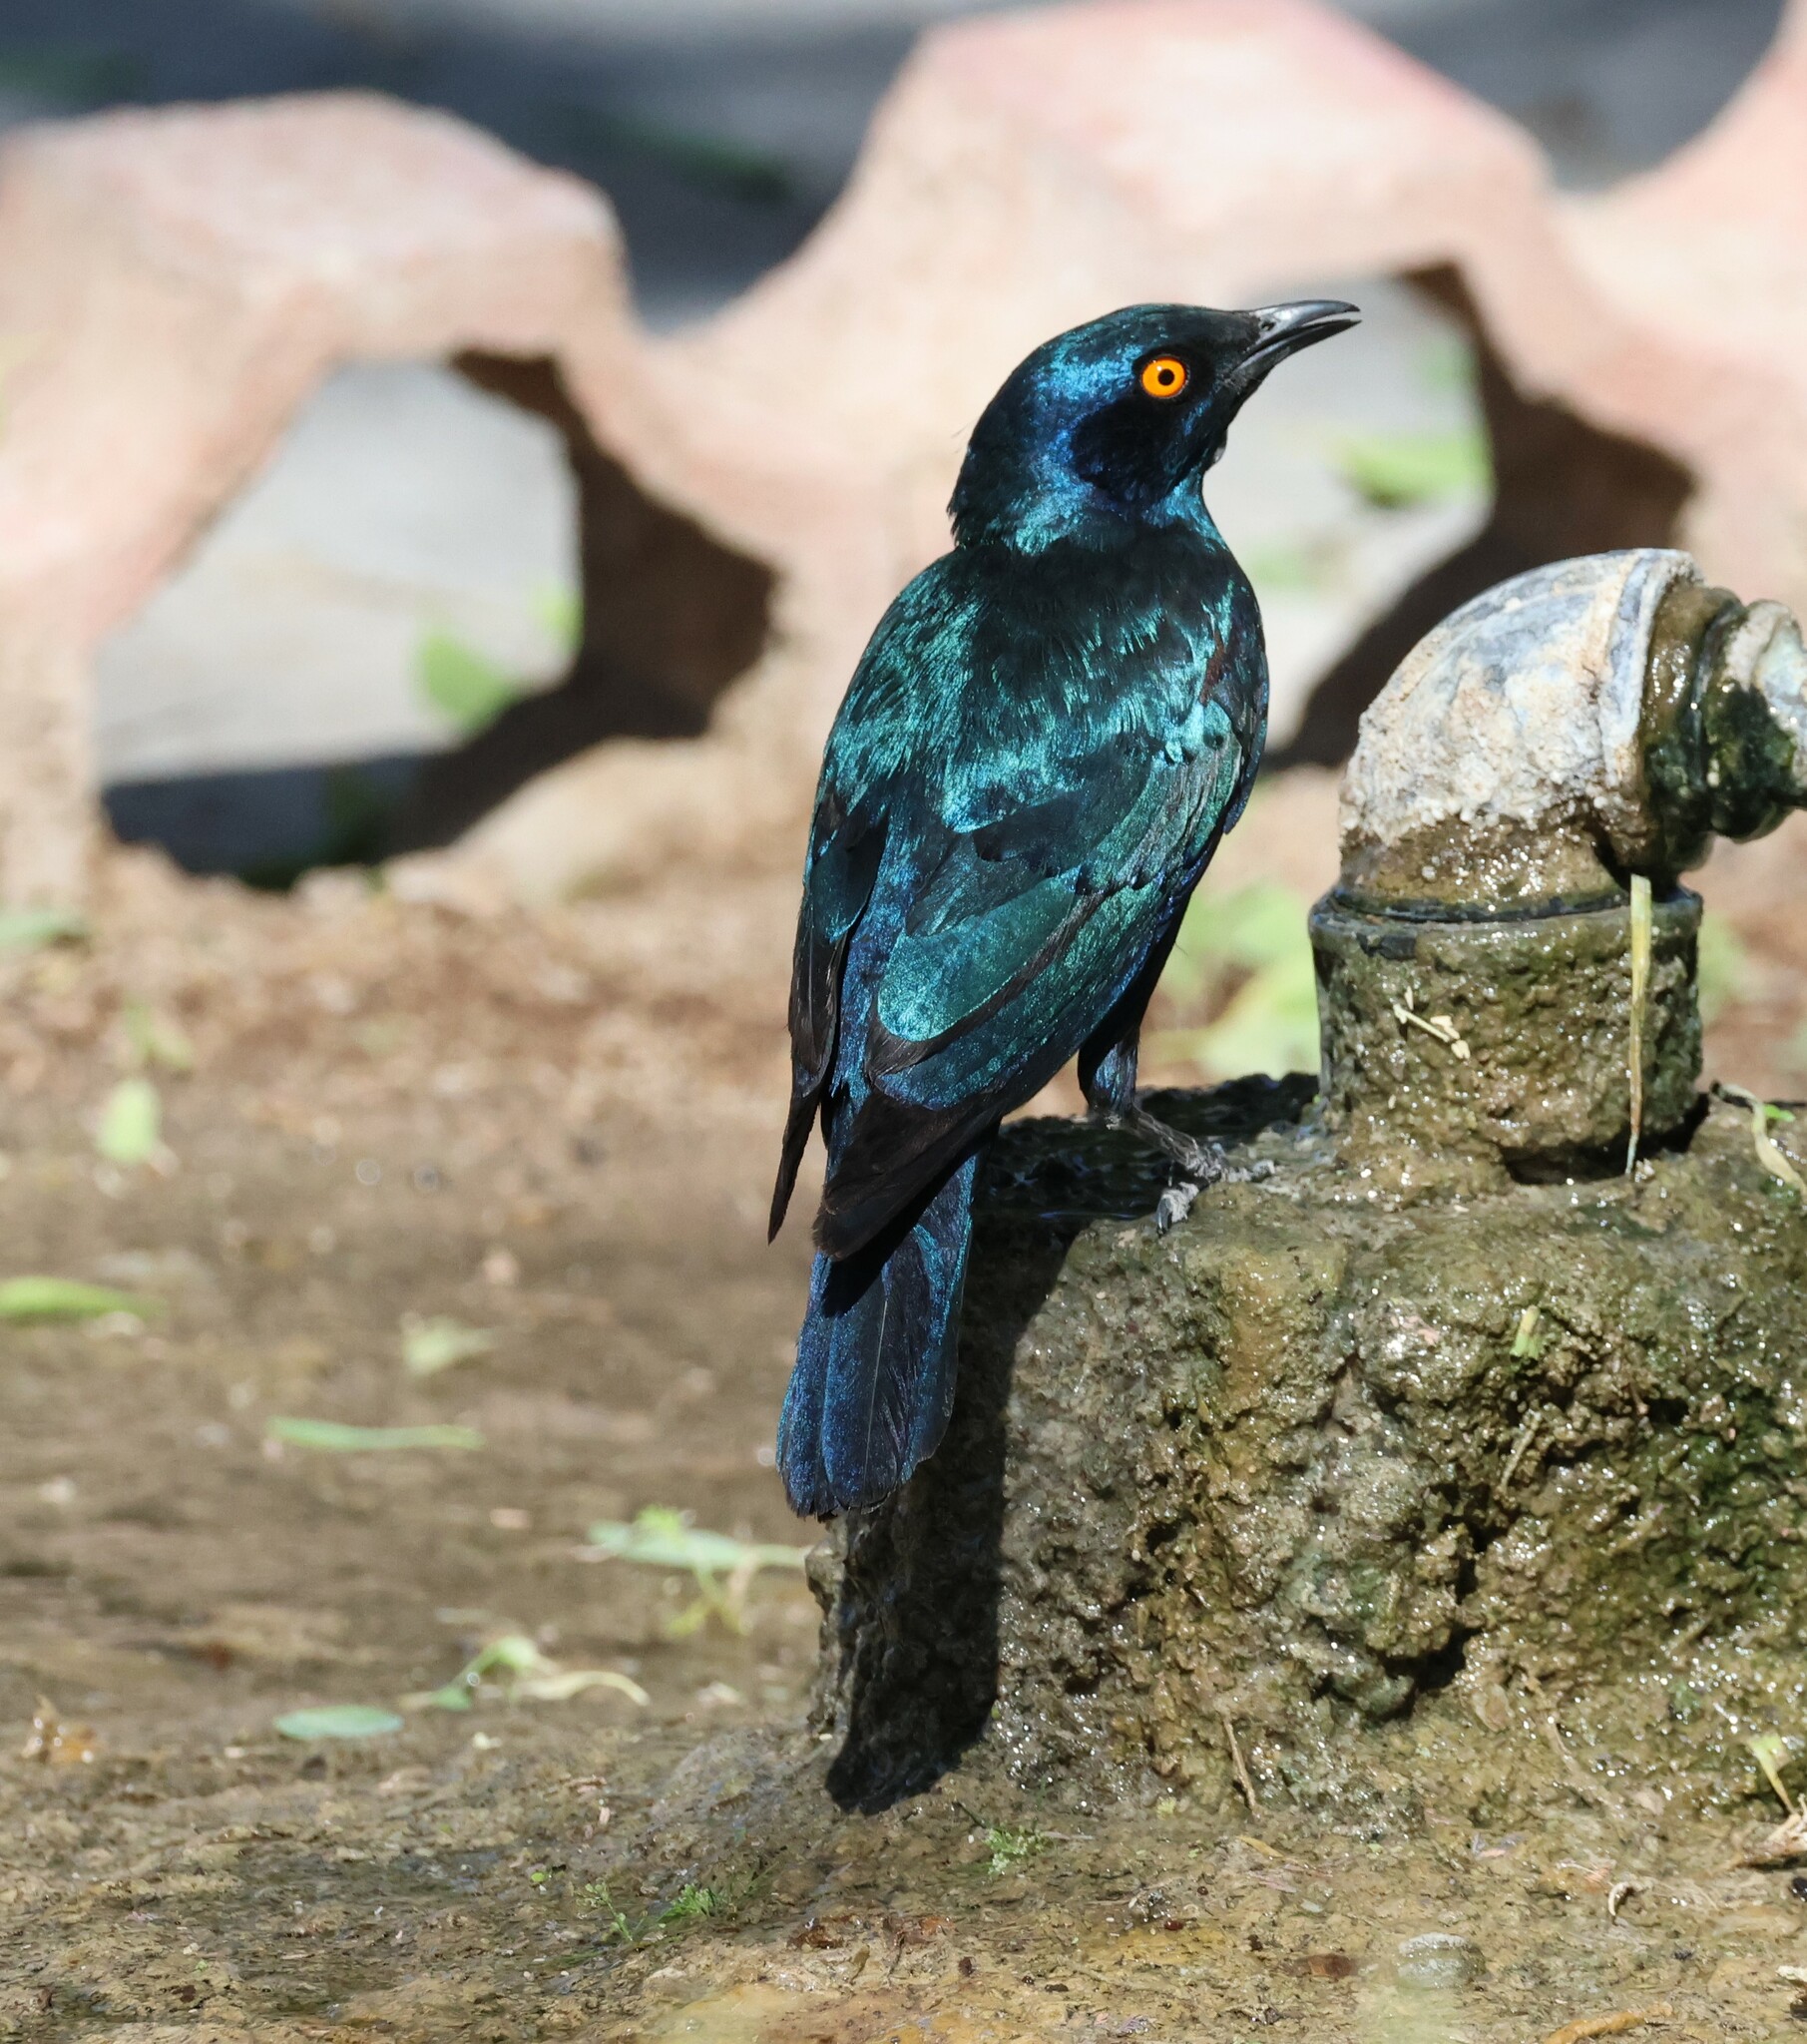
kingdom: Animalia
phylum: Chordata
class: Aves
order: Passeriformes
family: Sturnidae
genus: Lamprotornis
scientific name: Lamprotornis nitens
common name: Cape starling
